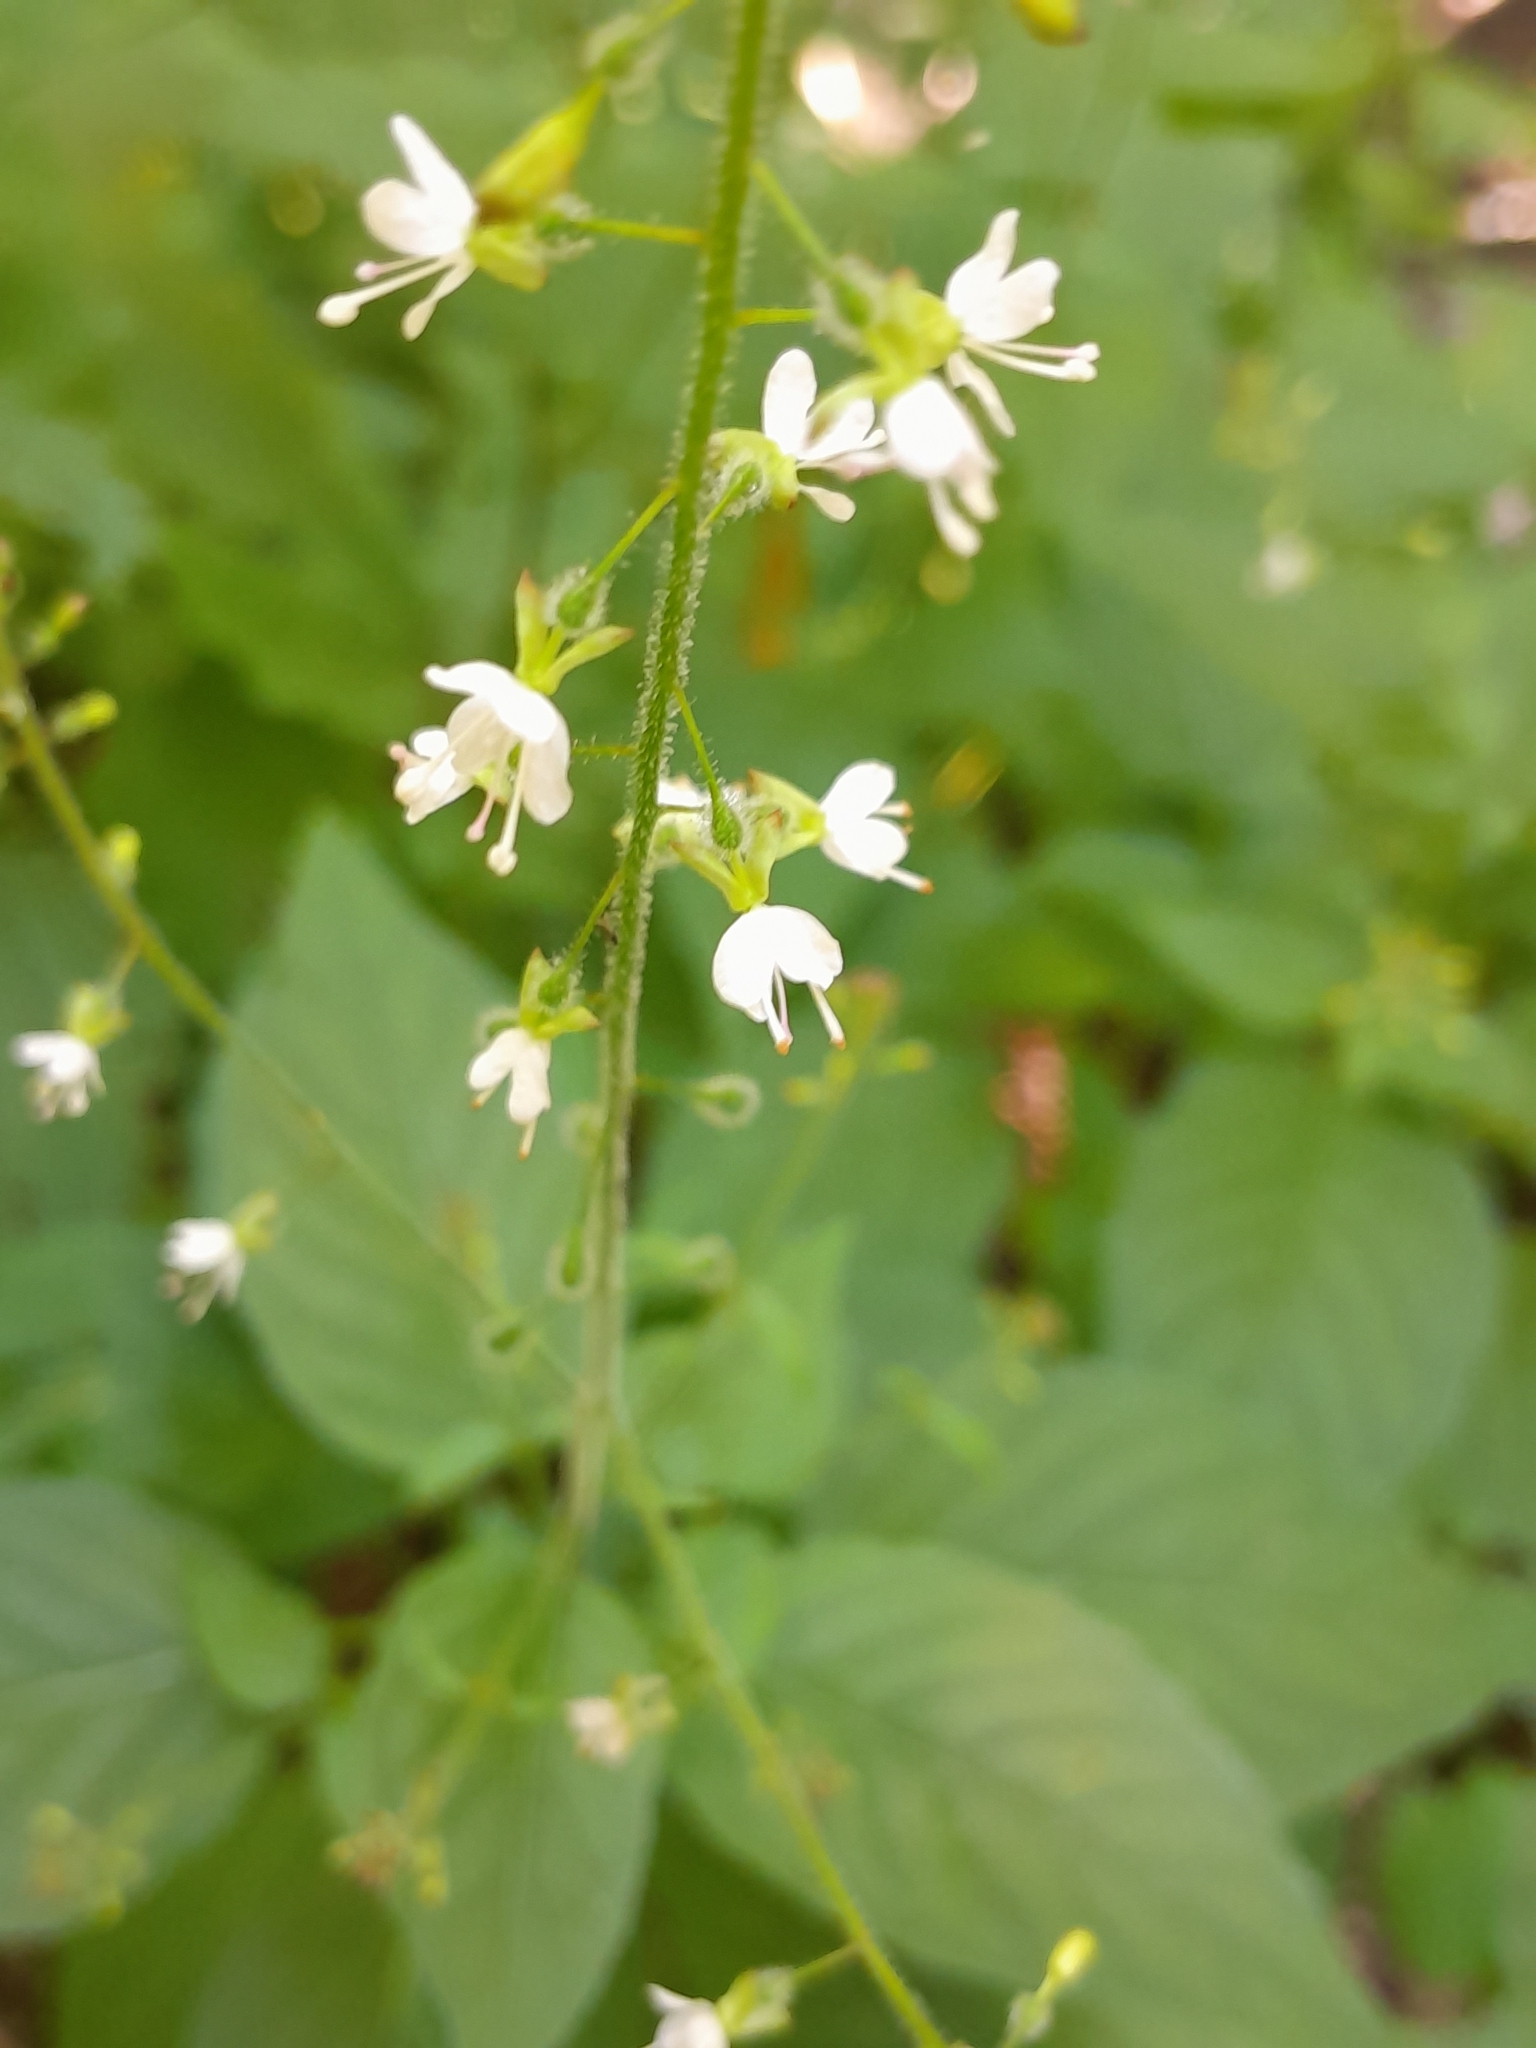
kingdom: Plantae
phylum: Tracheophyta
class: Magnoliopsida
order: Myrtales
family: Onagraceae
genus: Circaea
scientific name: Circaea lutetiana
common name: Enchanter's-nightshade
